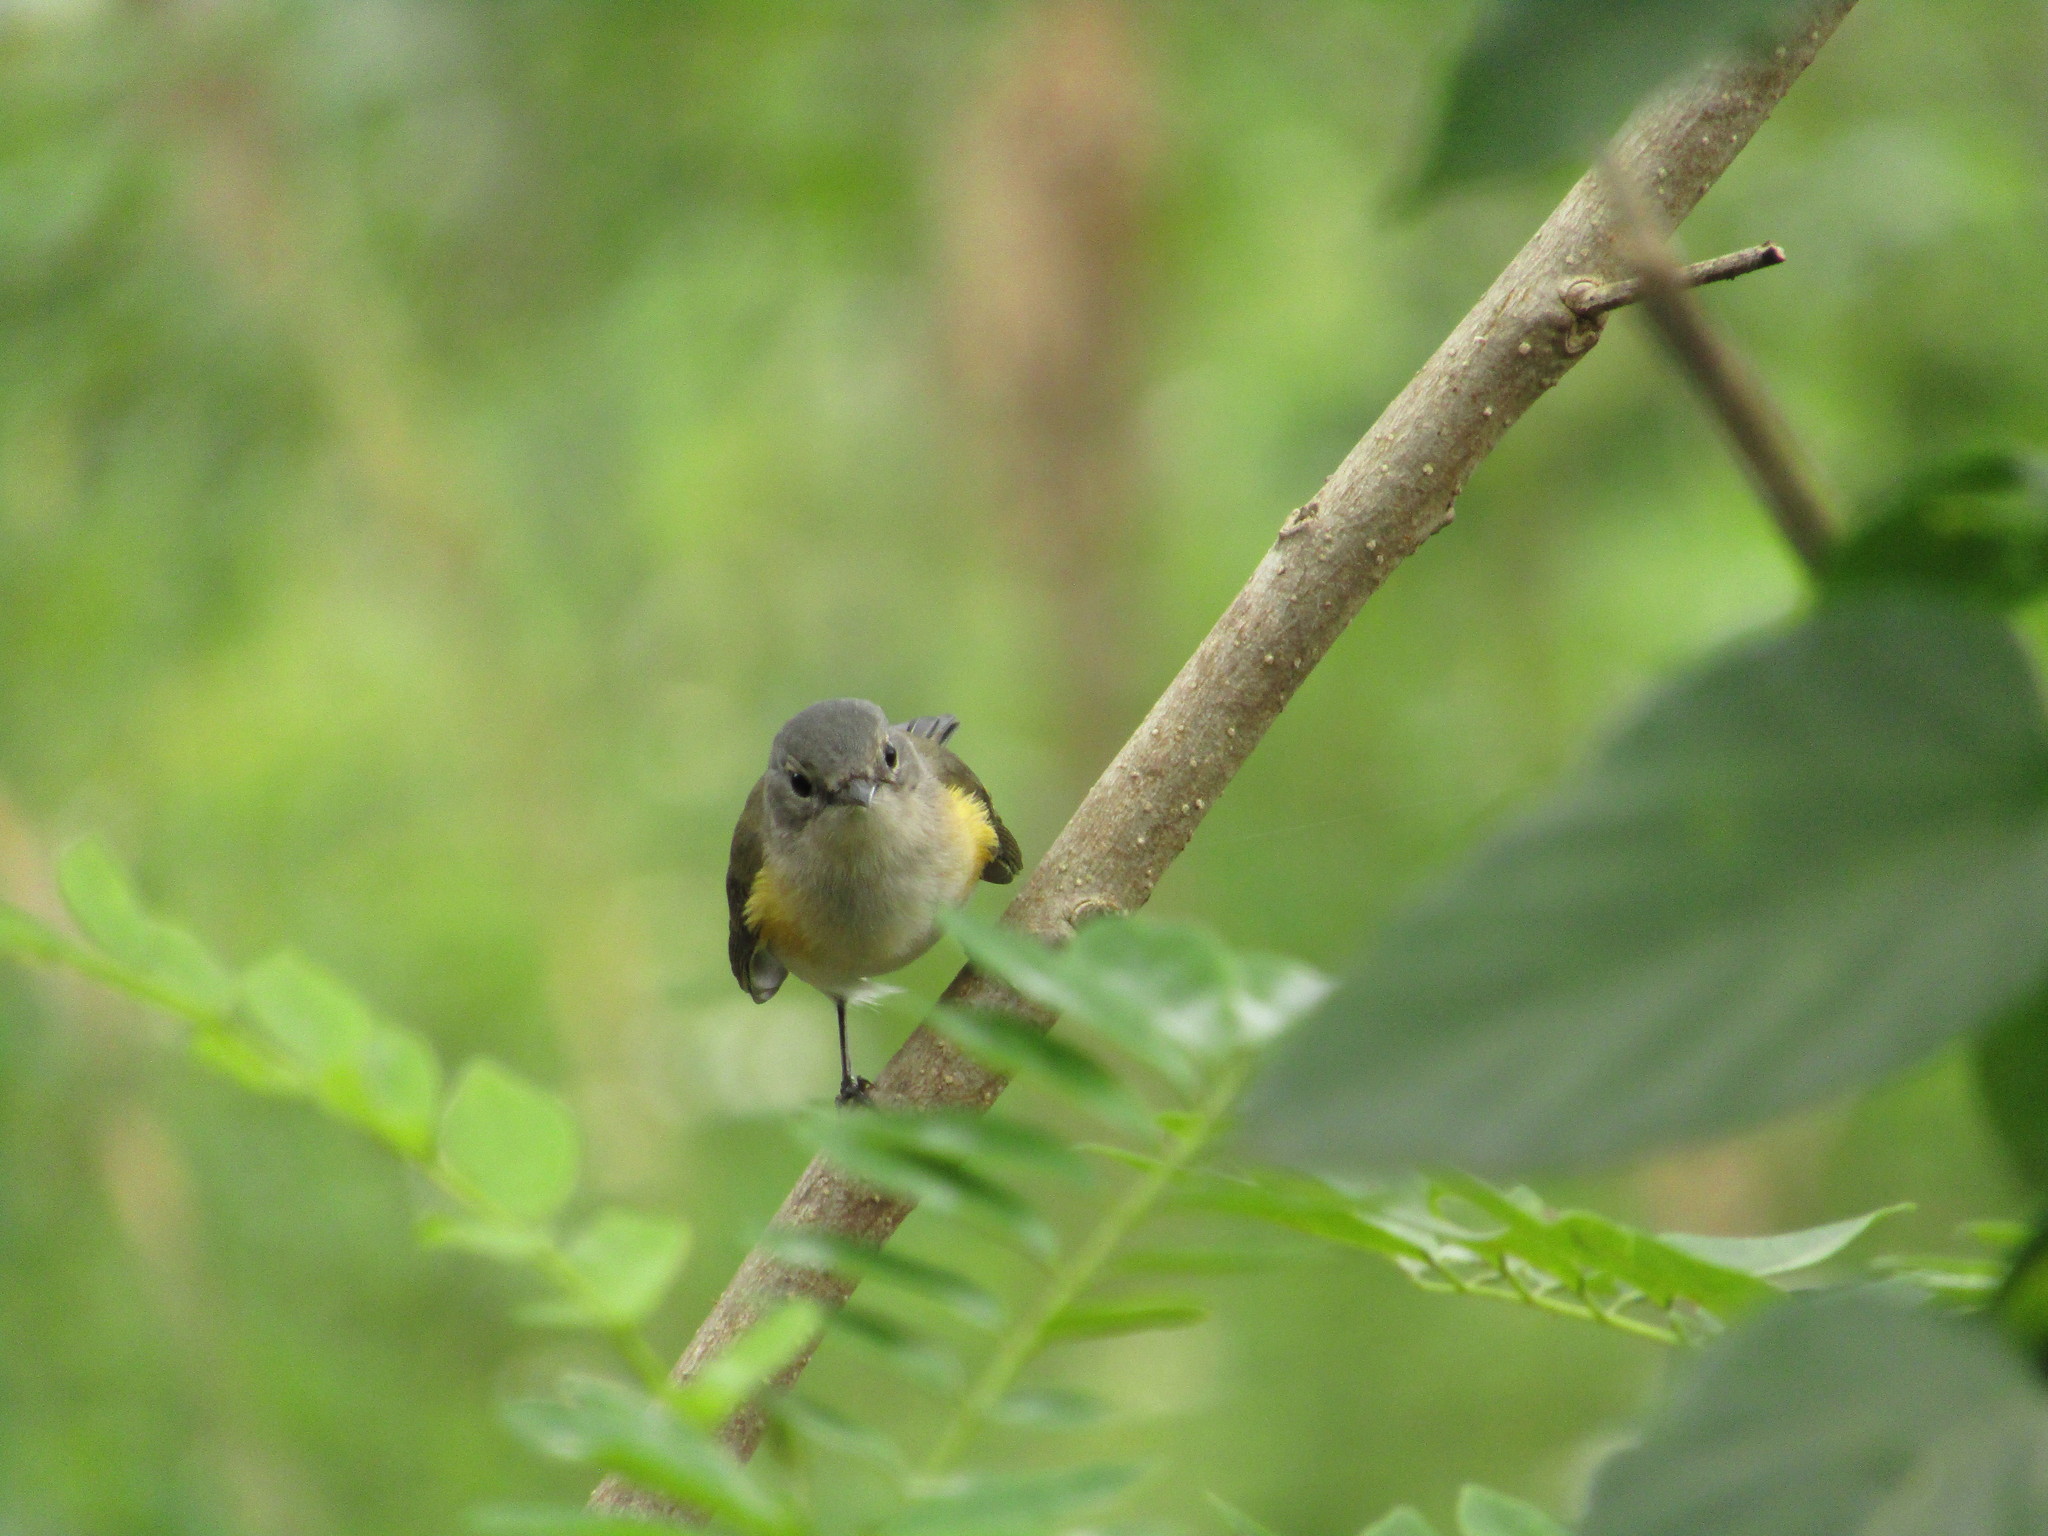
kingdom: Animalia
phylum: Chordata
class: Aves
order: Passeriformes
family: Parulidae
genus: Setophaga
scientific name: Setophaga ruticilla
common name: American redstart
